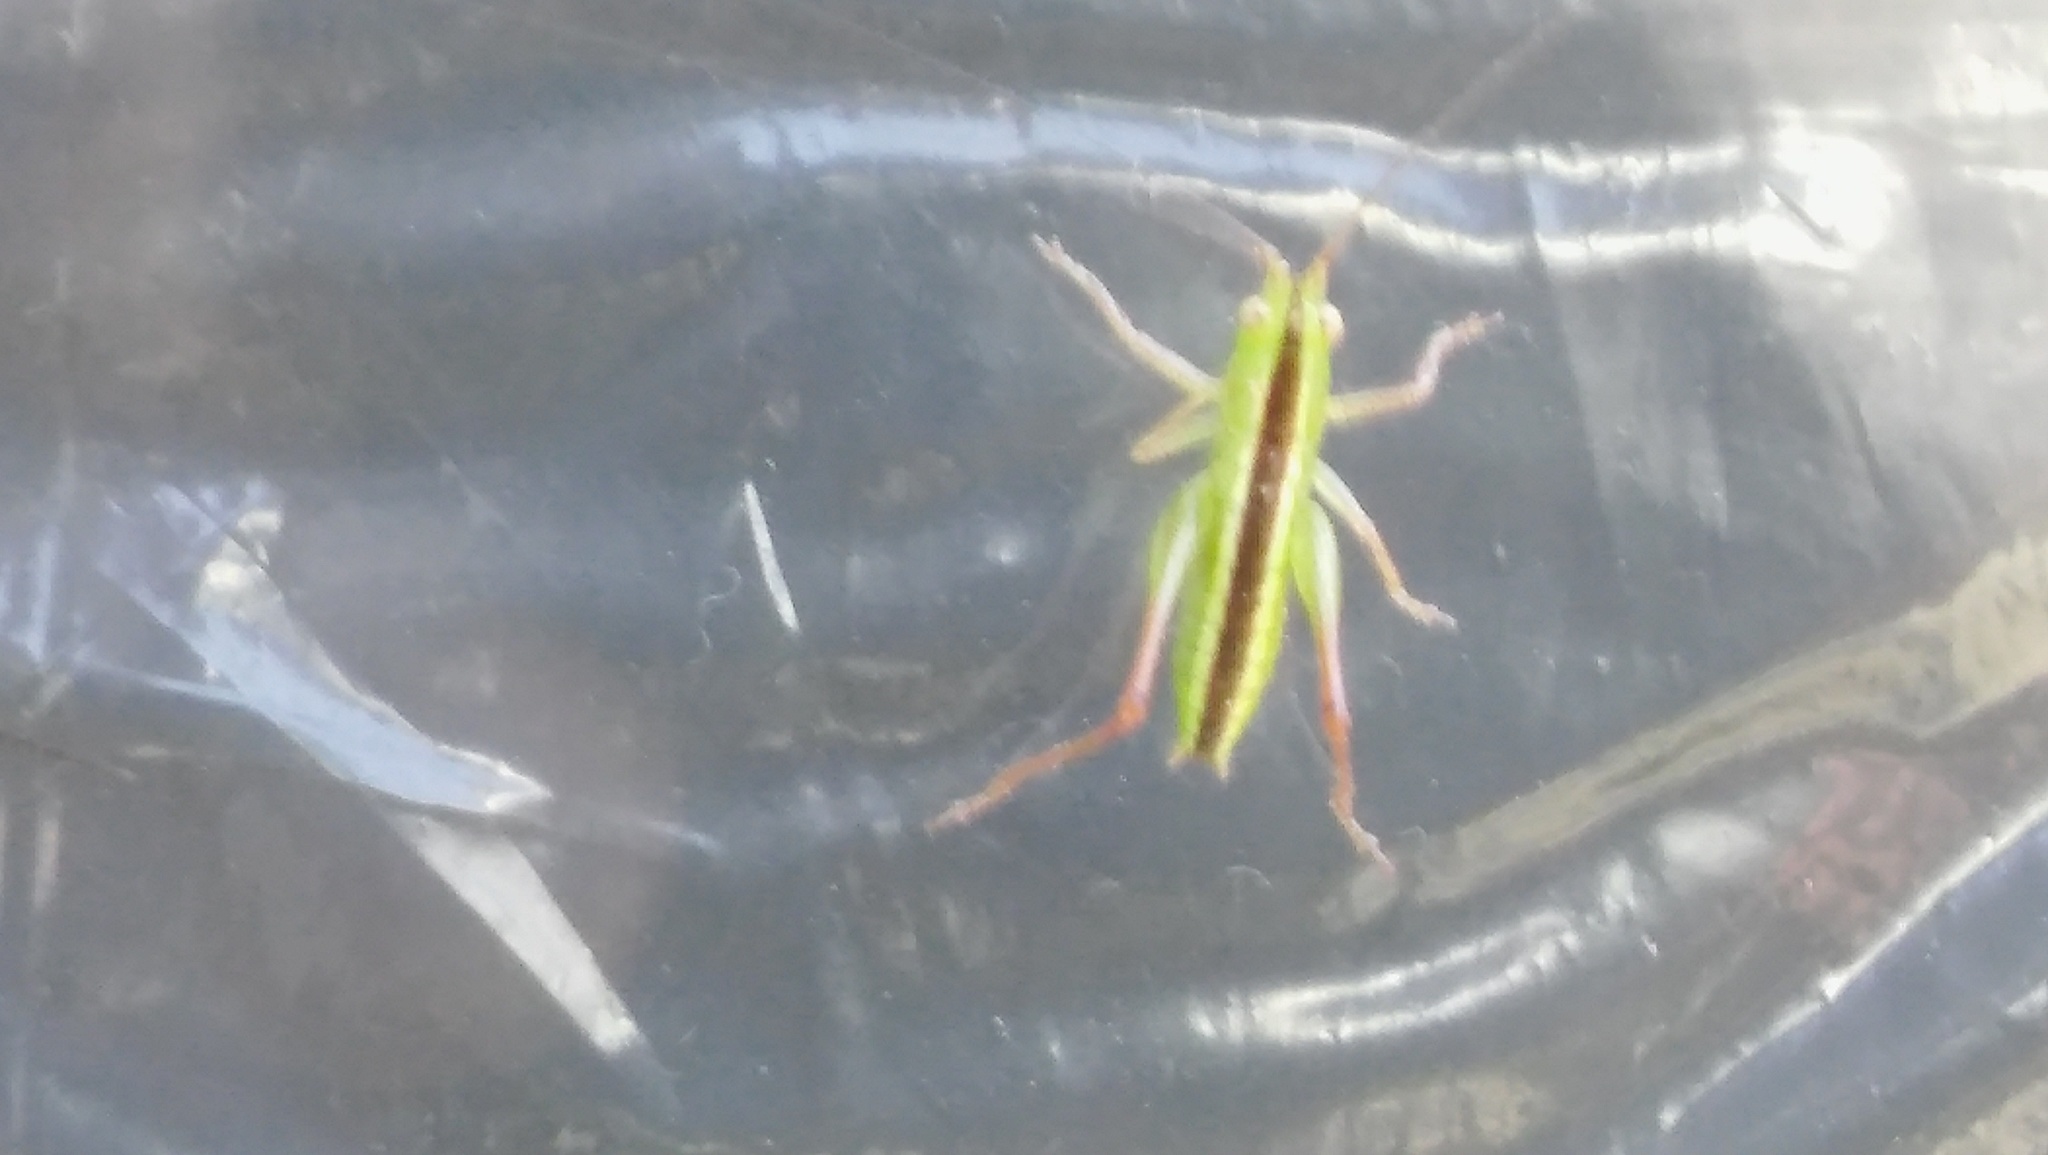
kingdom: Animalia
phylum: Arthropoda
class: Insecta
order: Orthoptera
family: Tettigoniidae
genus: Conocephalus
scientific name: Conocephalus longipes
